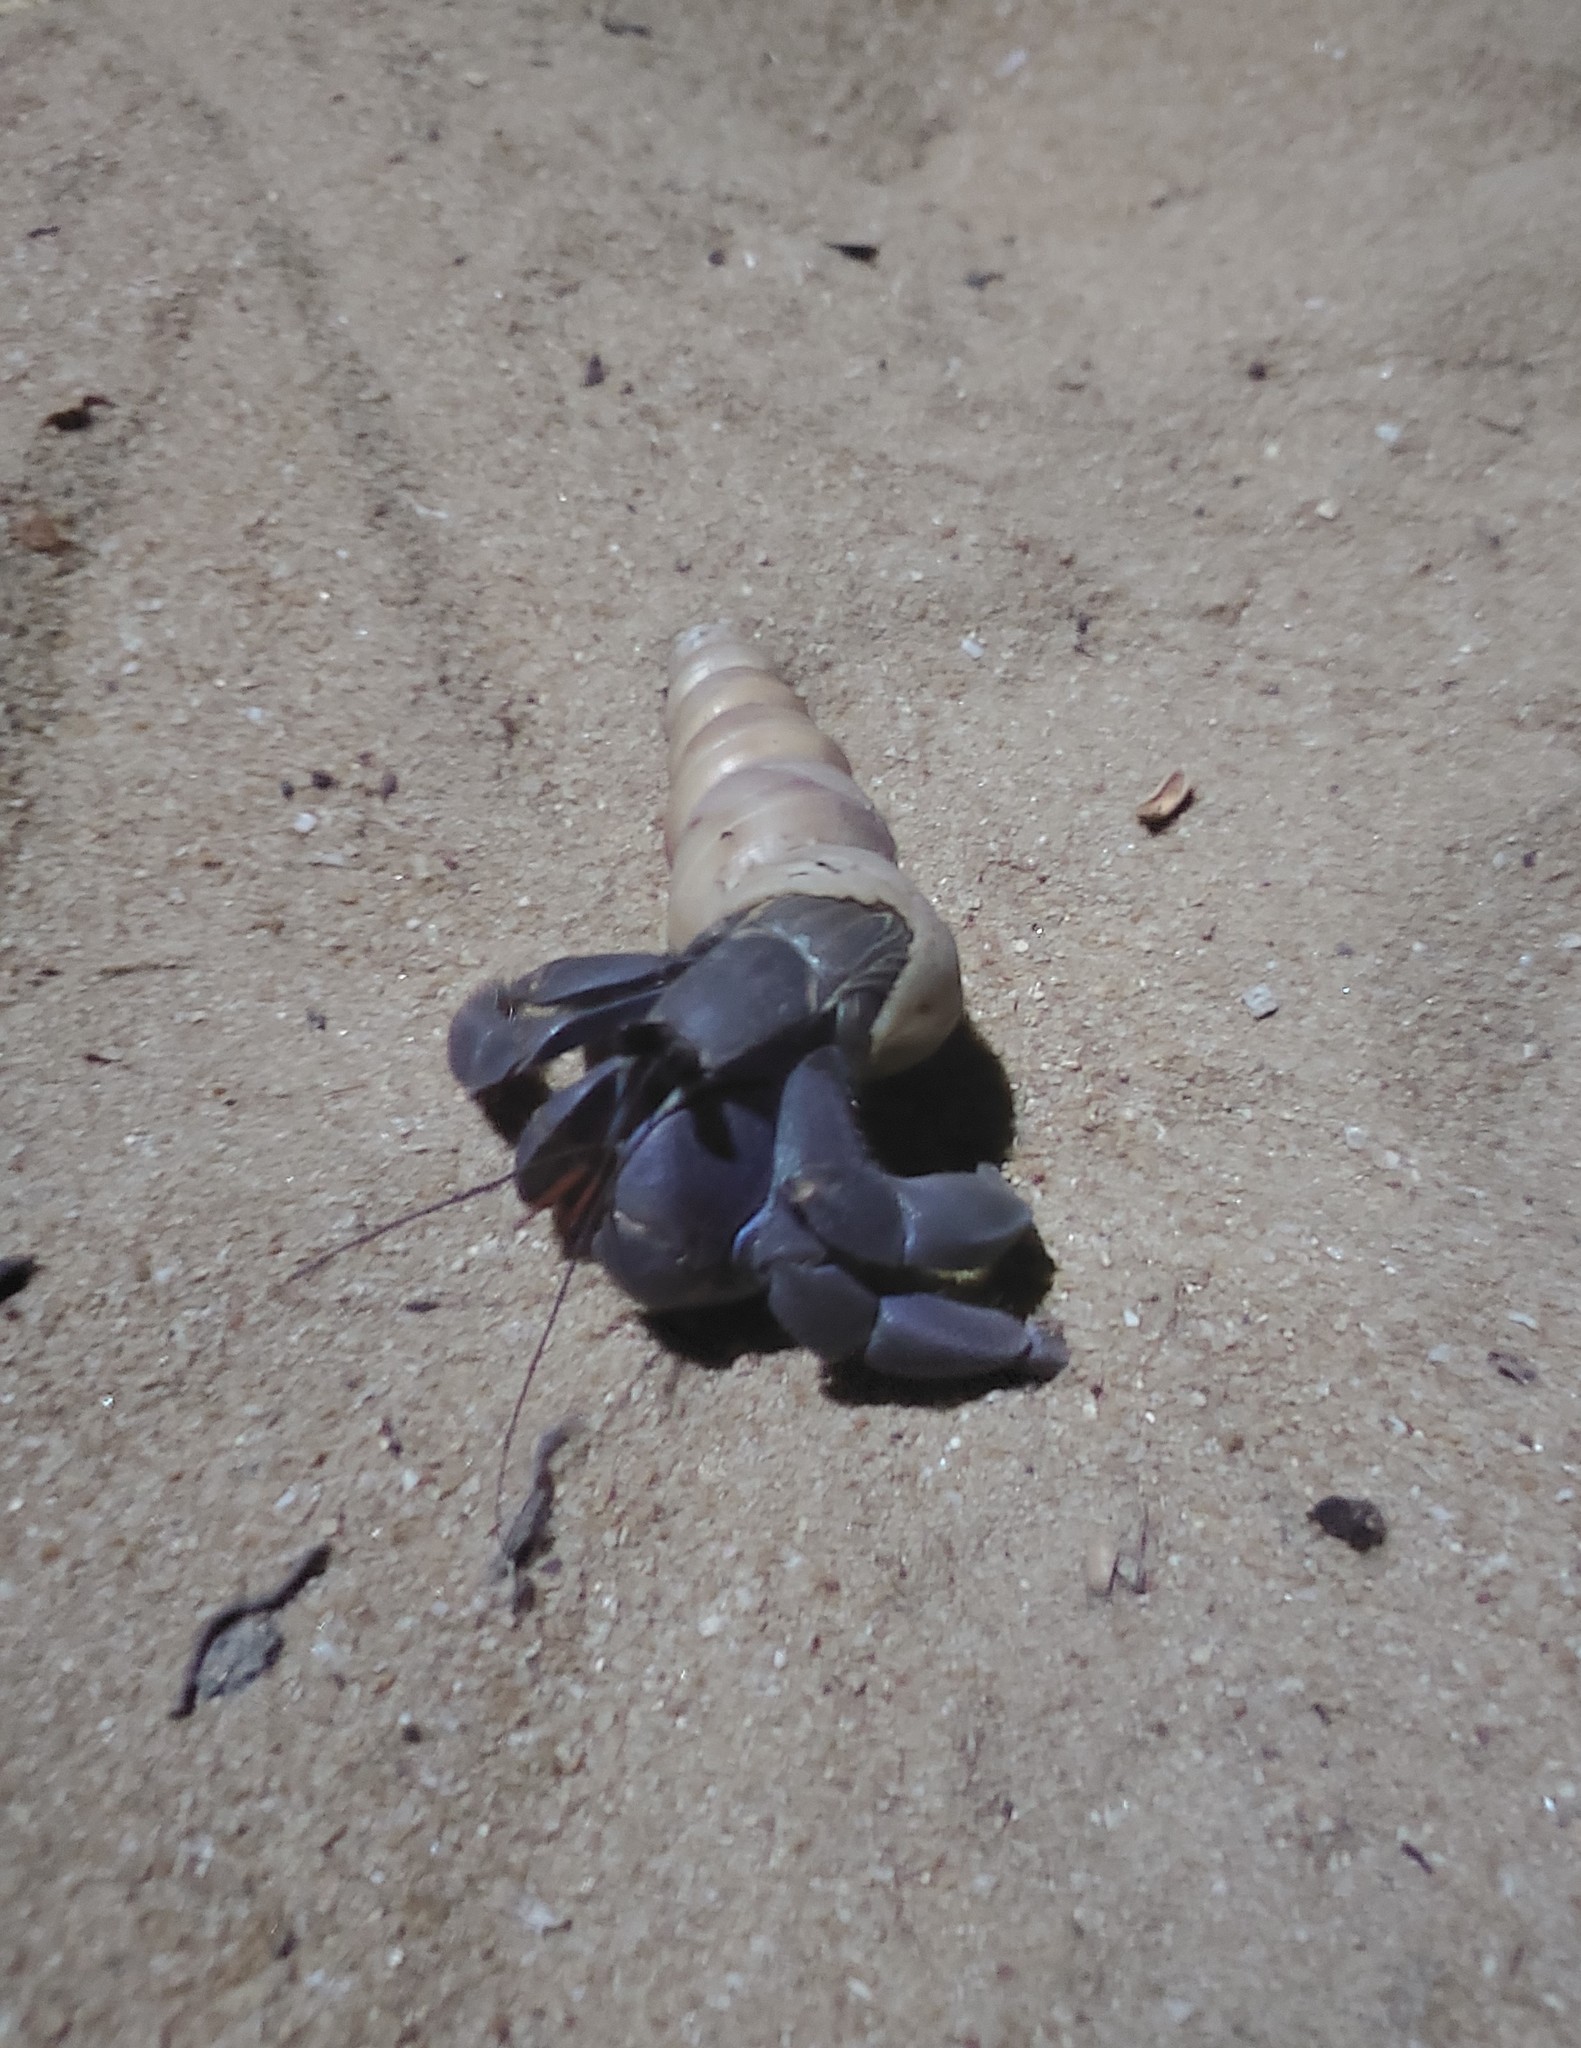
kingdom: Animalia
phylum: Arthropoda
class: Malacostraca
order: Decapoda
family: Coenobitidae
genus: Coenobita
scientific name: Coenobita violascens
